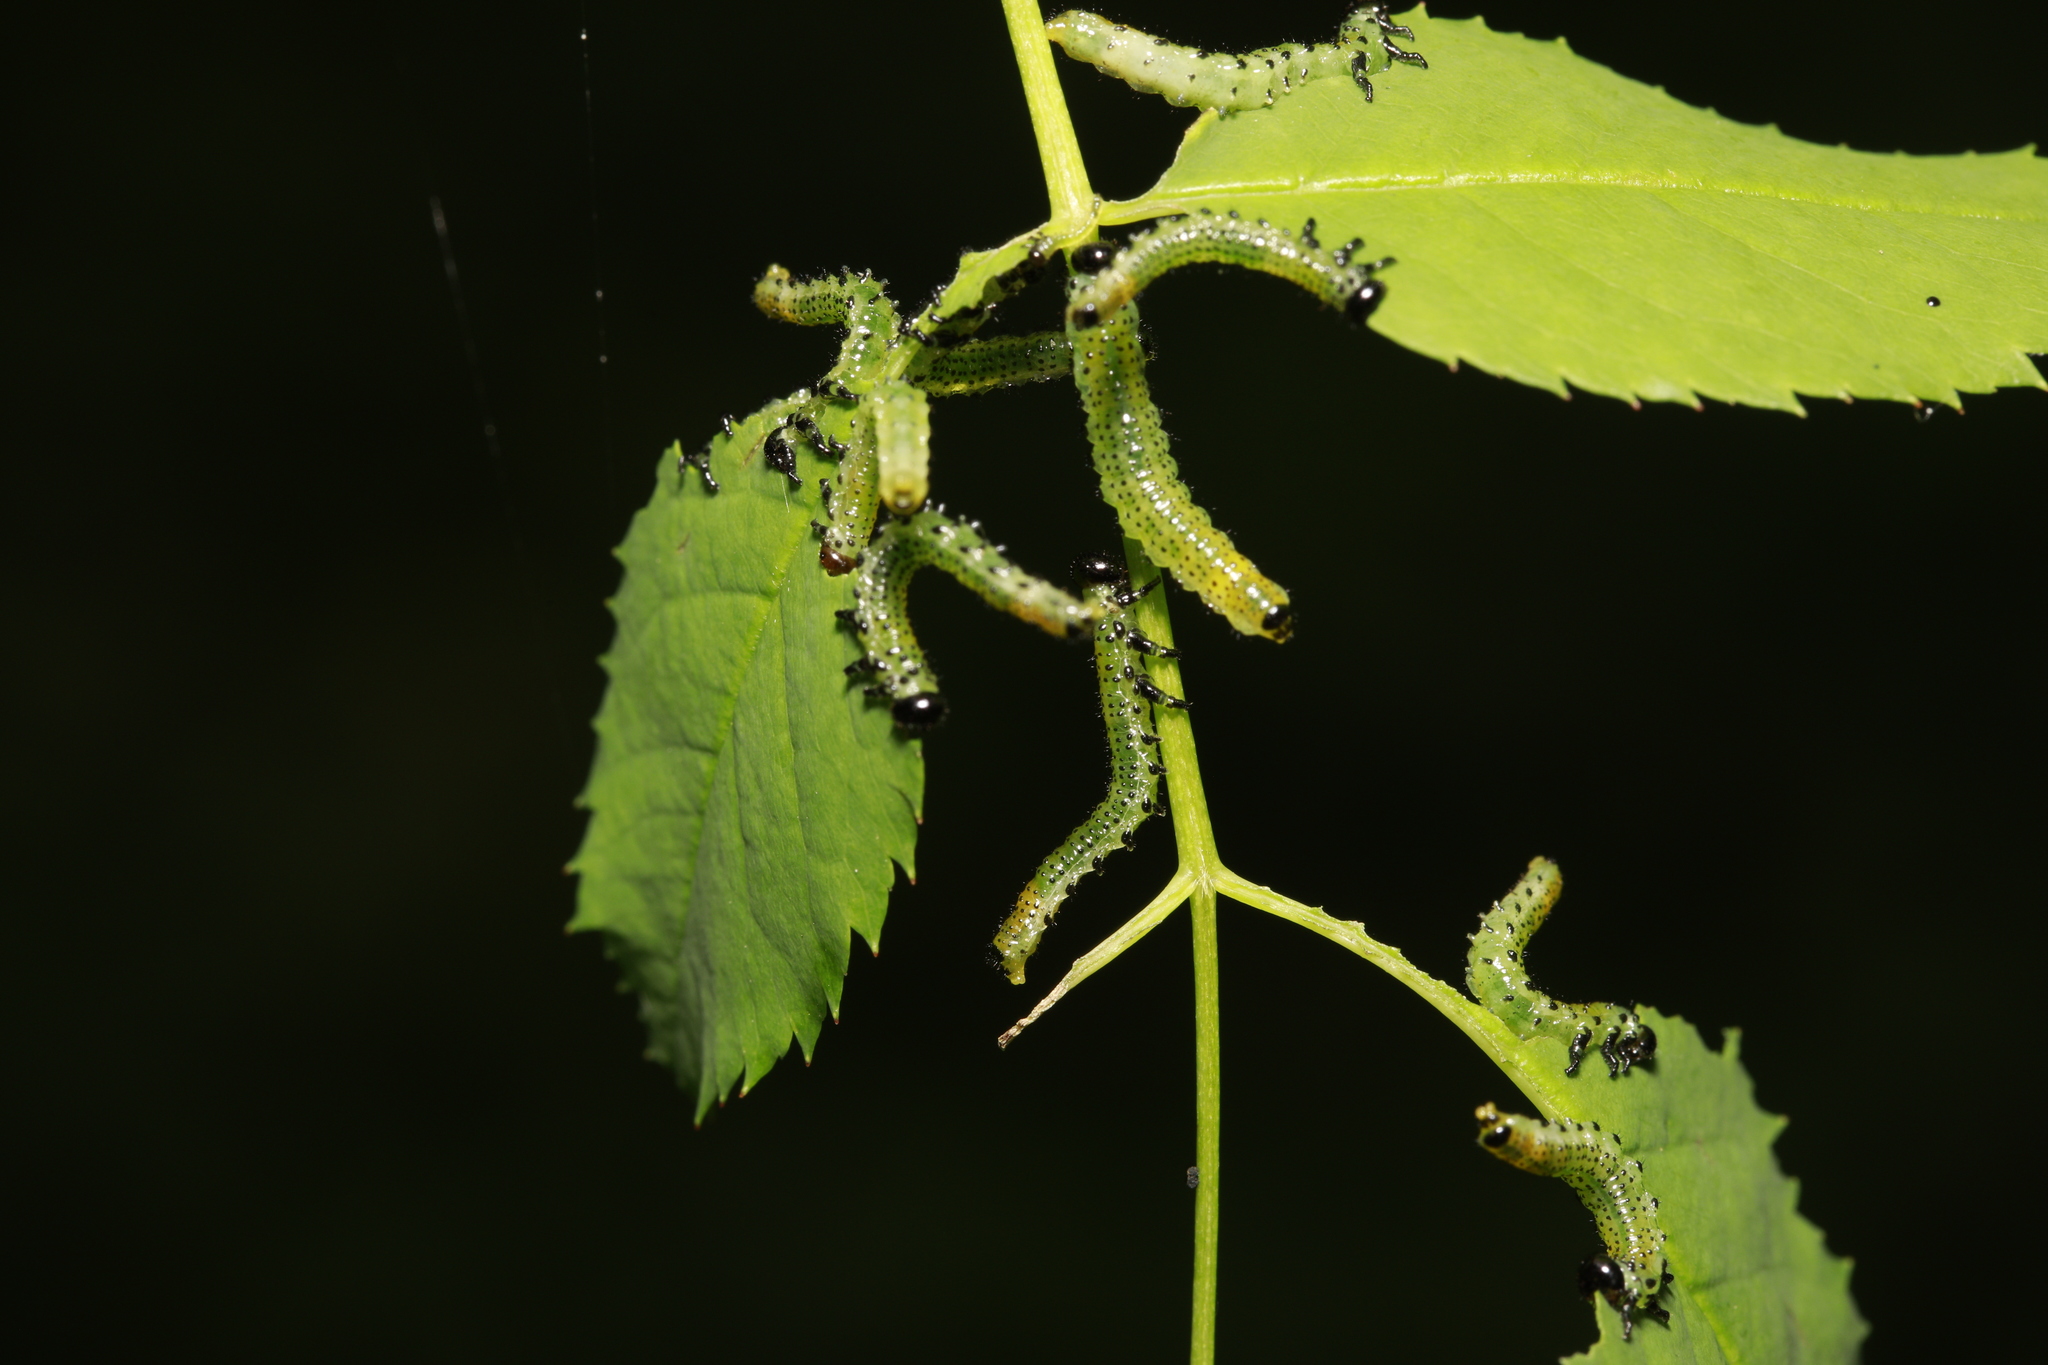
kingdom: Animalia
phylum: Arthropoda
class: Insecta
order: Hymenoptera
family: Argidae
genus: Arge
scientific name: Arge pagana
